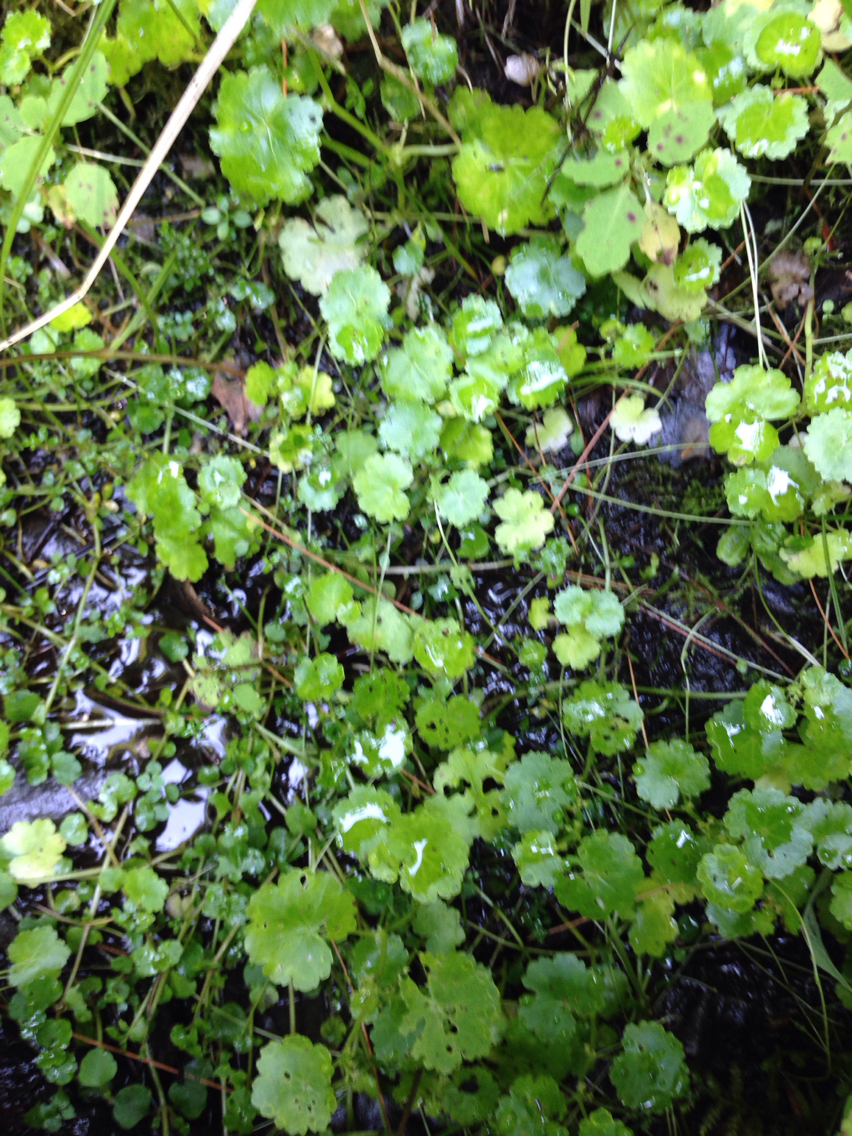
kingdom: Plantae
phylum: Tracheophyta
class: Magnoliopsida
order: Apiales
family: Araliaceae
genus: Hydrocotyle
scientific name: Hydrocotyle americana
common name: American water-pennywort
